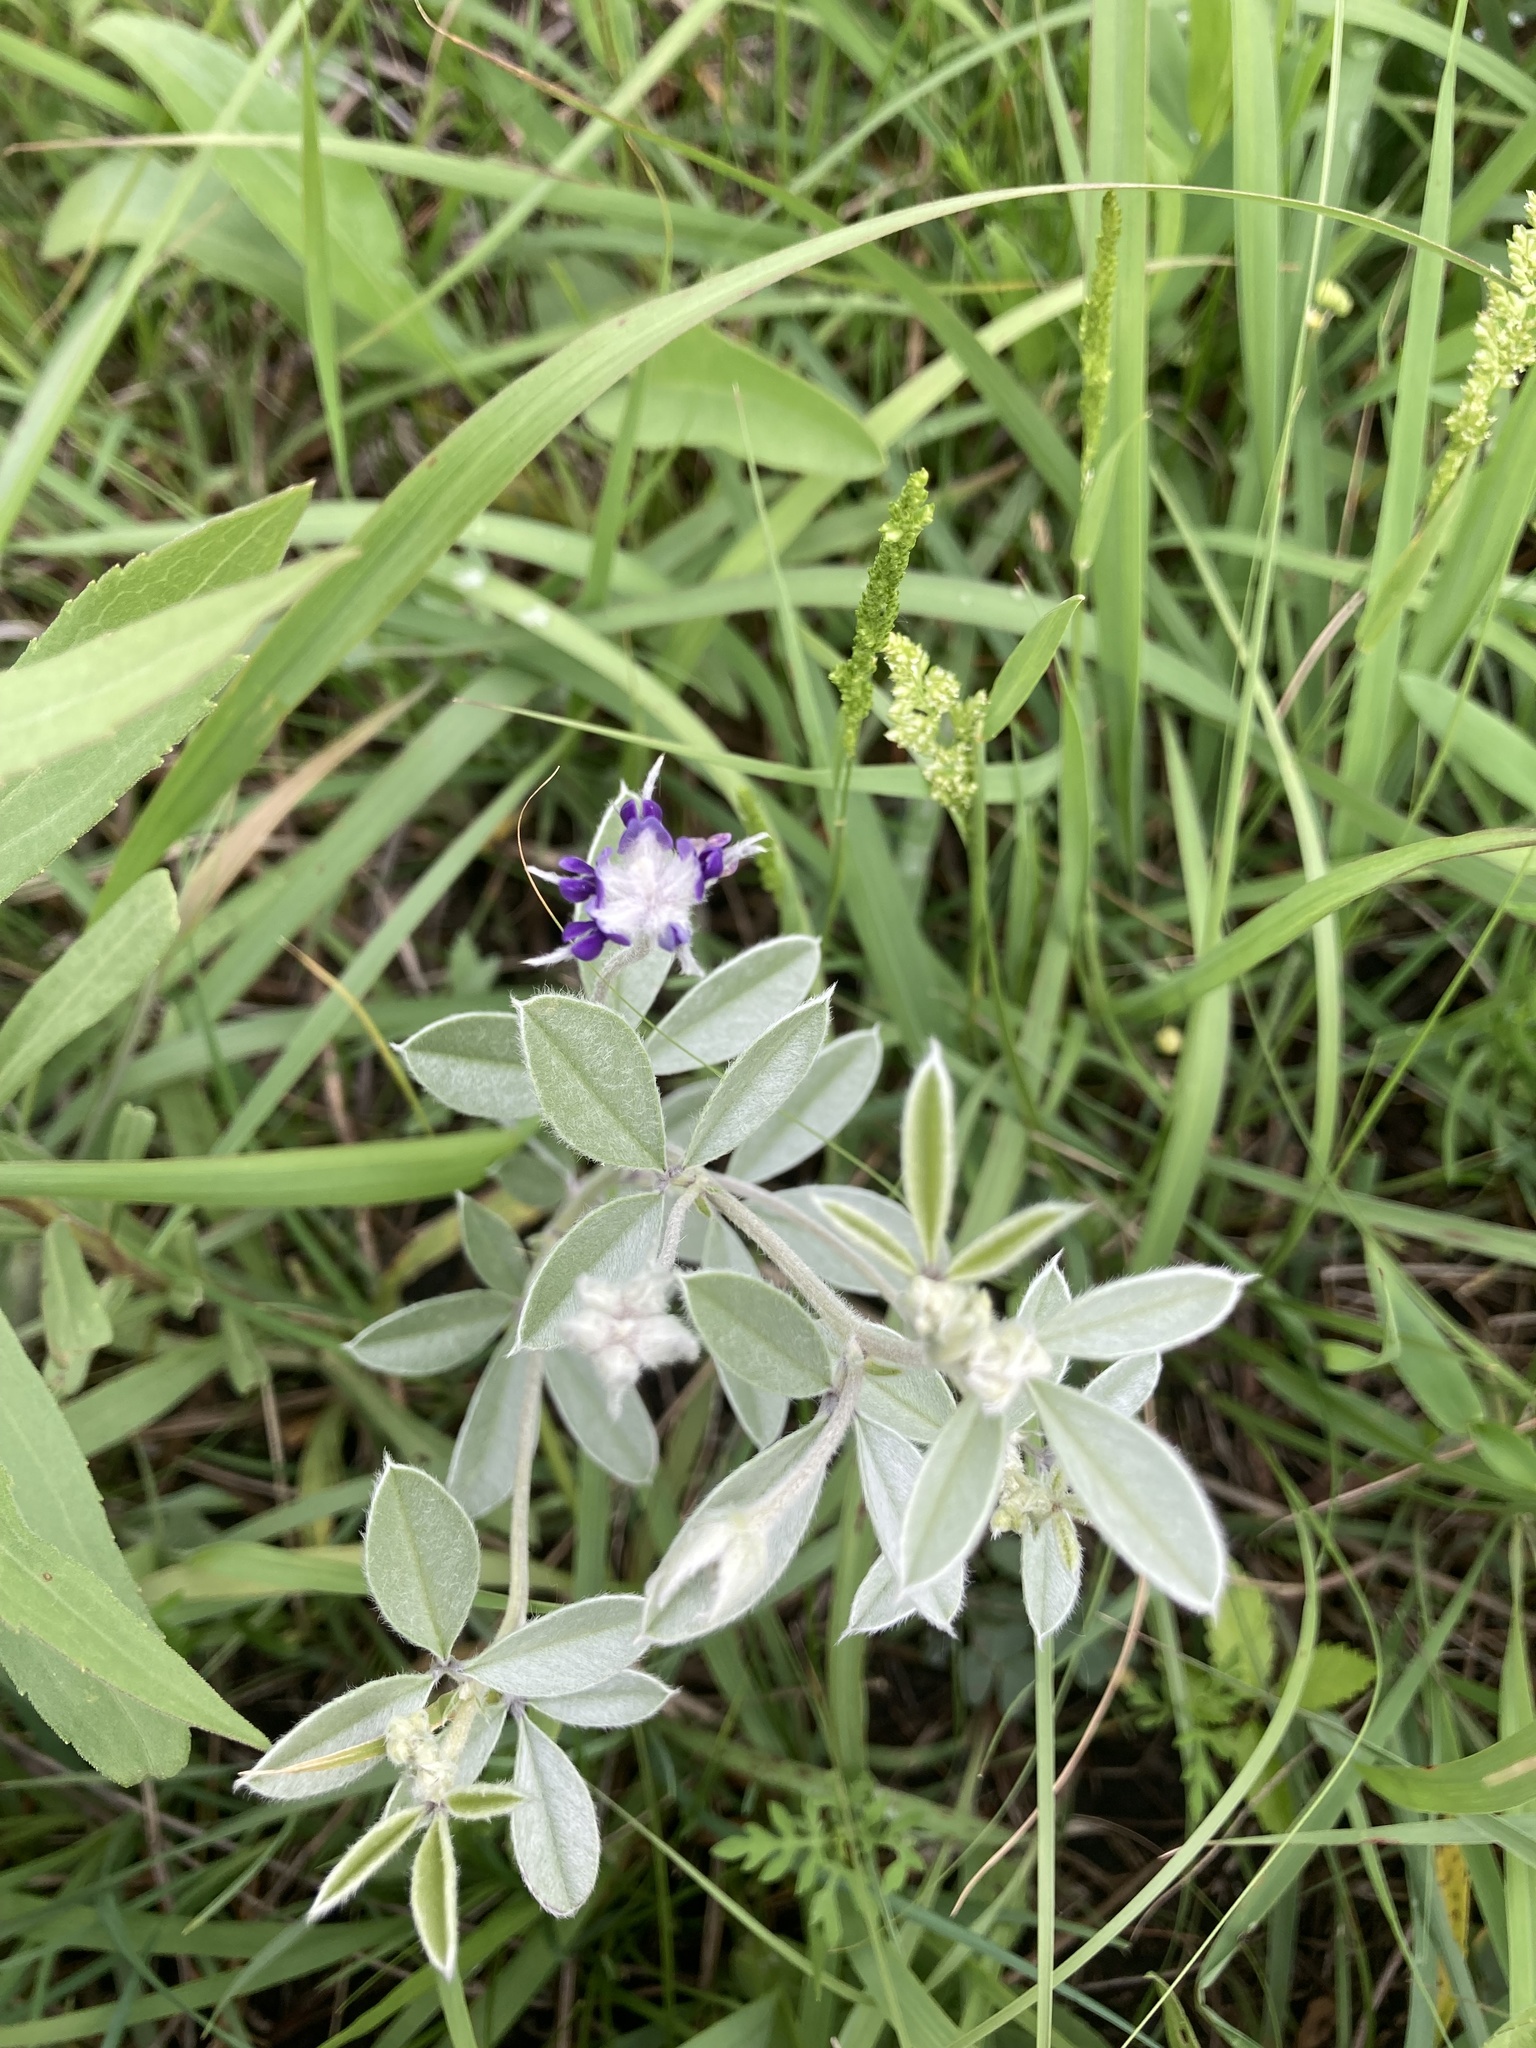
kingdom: Plantae
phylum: Tracheophyta
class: Magnoliopsida
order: Fabales
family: Fabaceae
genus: Pediomelum
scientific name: Pediomelum argophyllum
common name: Silver-leaved indian breadroot
